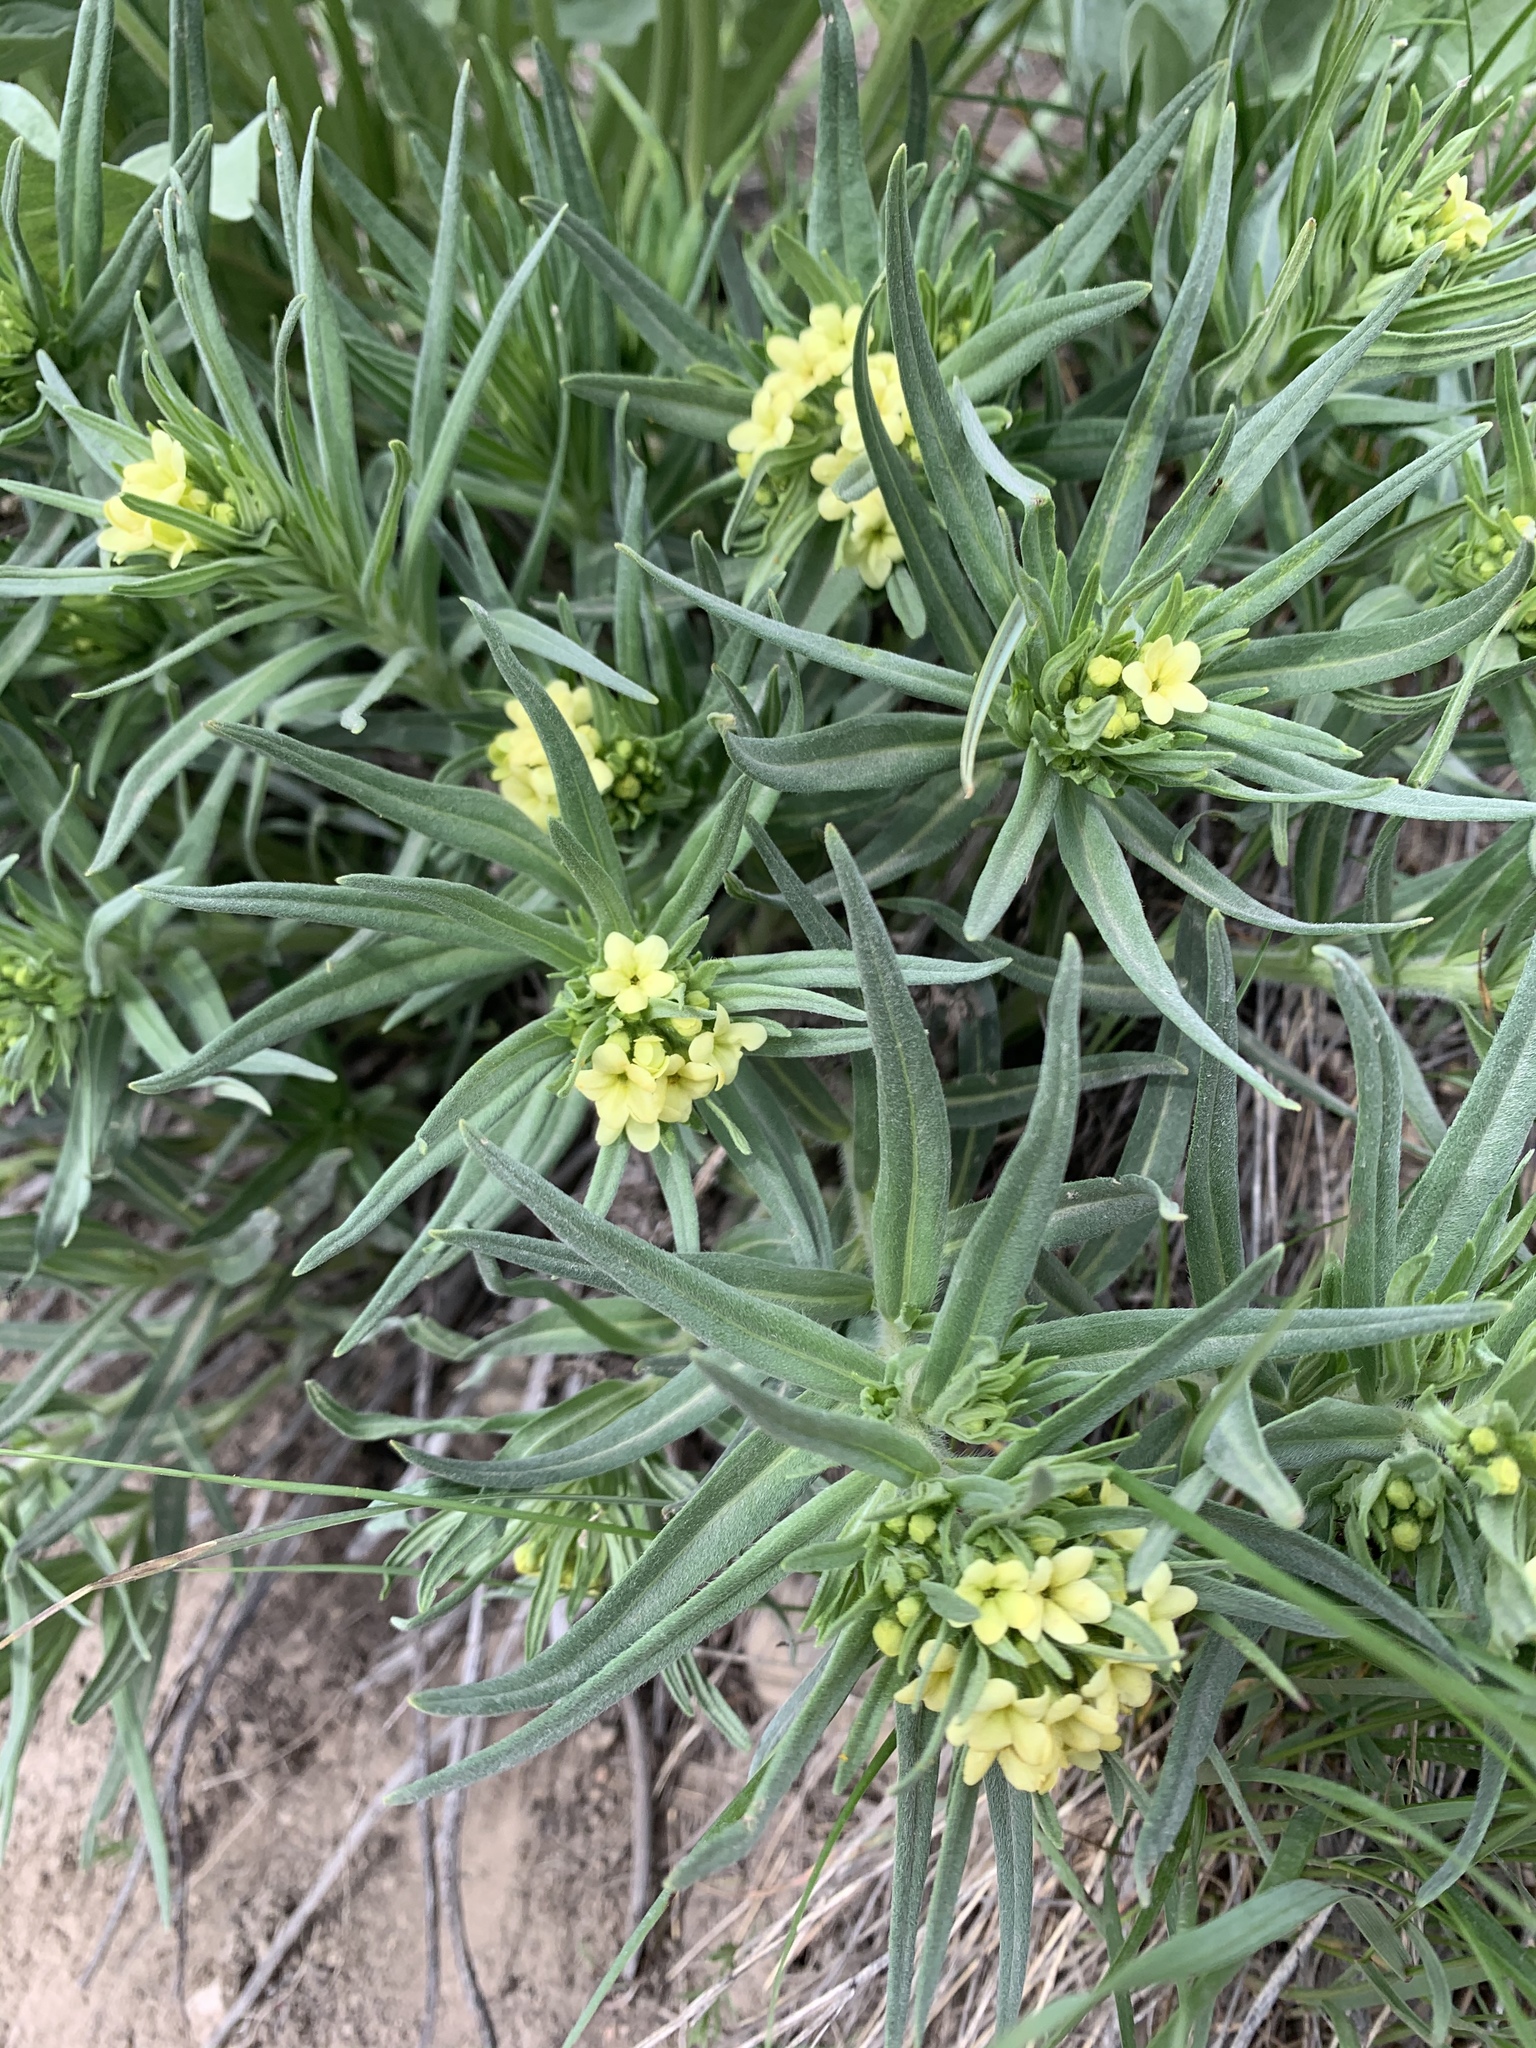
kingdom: Plantae
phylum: Tracheophyta
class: Magnoliopsida
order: Boraginales
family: Boraginaceae
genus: Lithospermum
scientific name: Lithospermum ruderale
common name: Western gromwell
